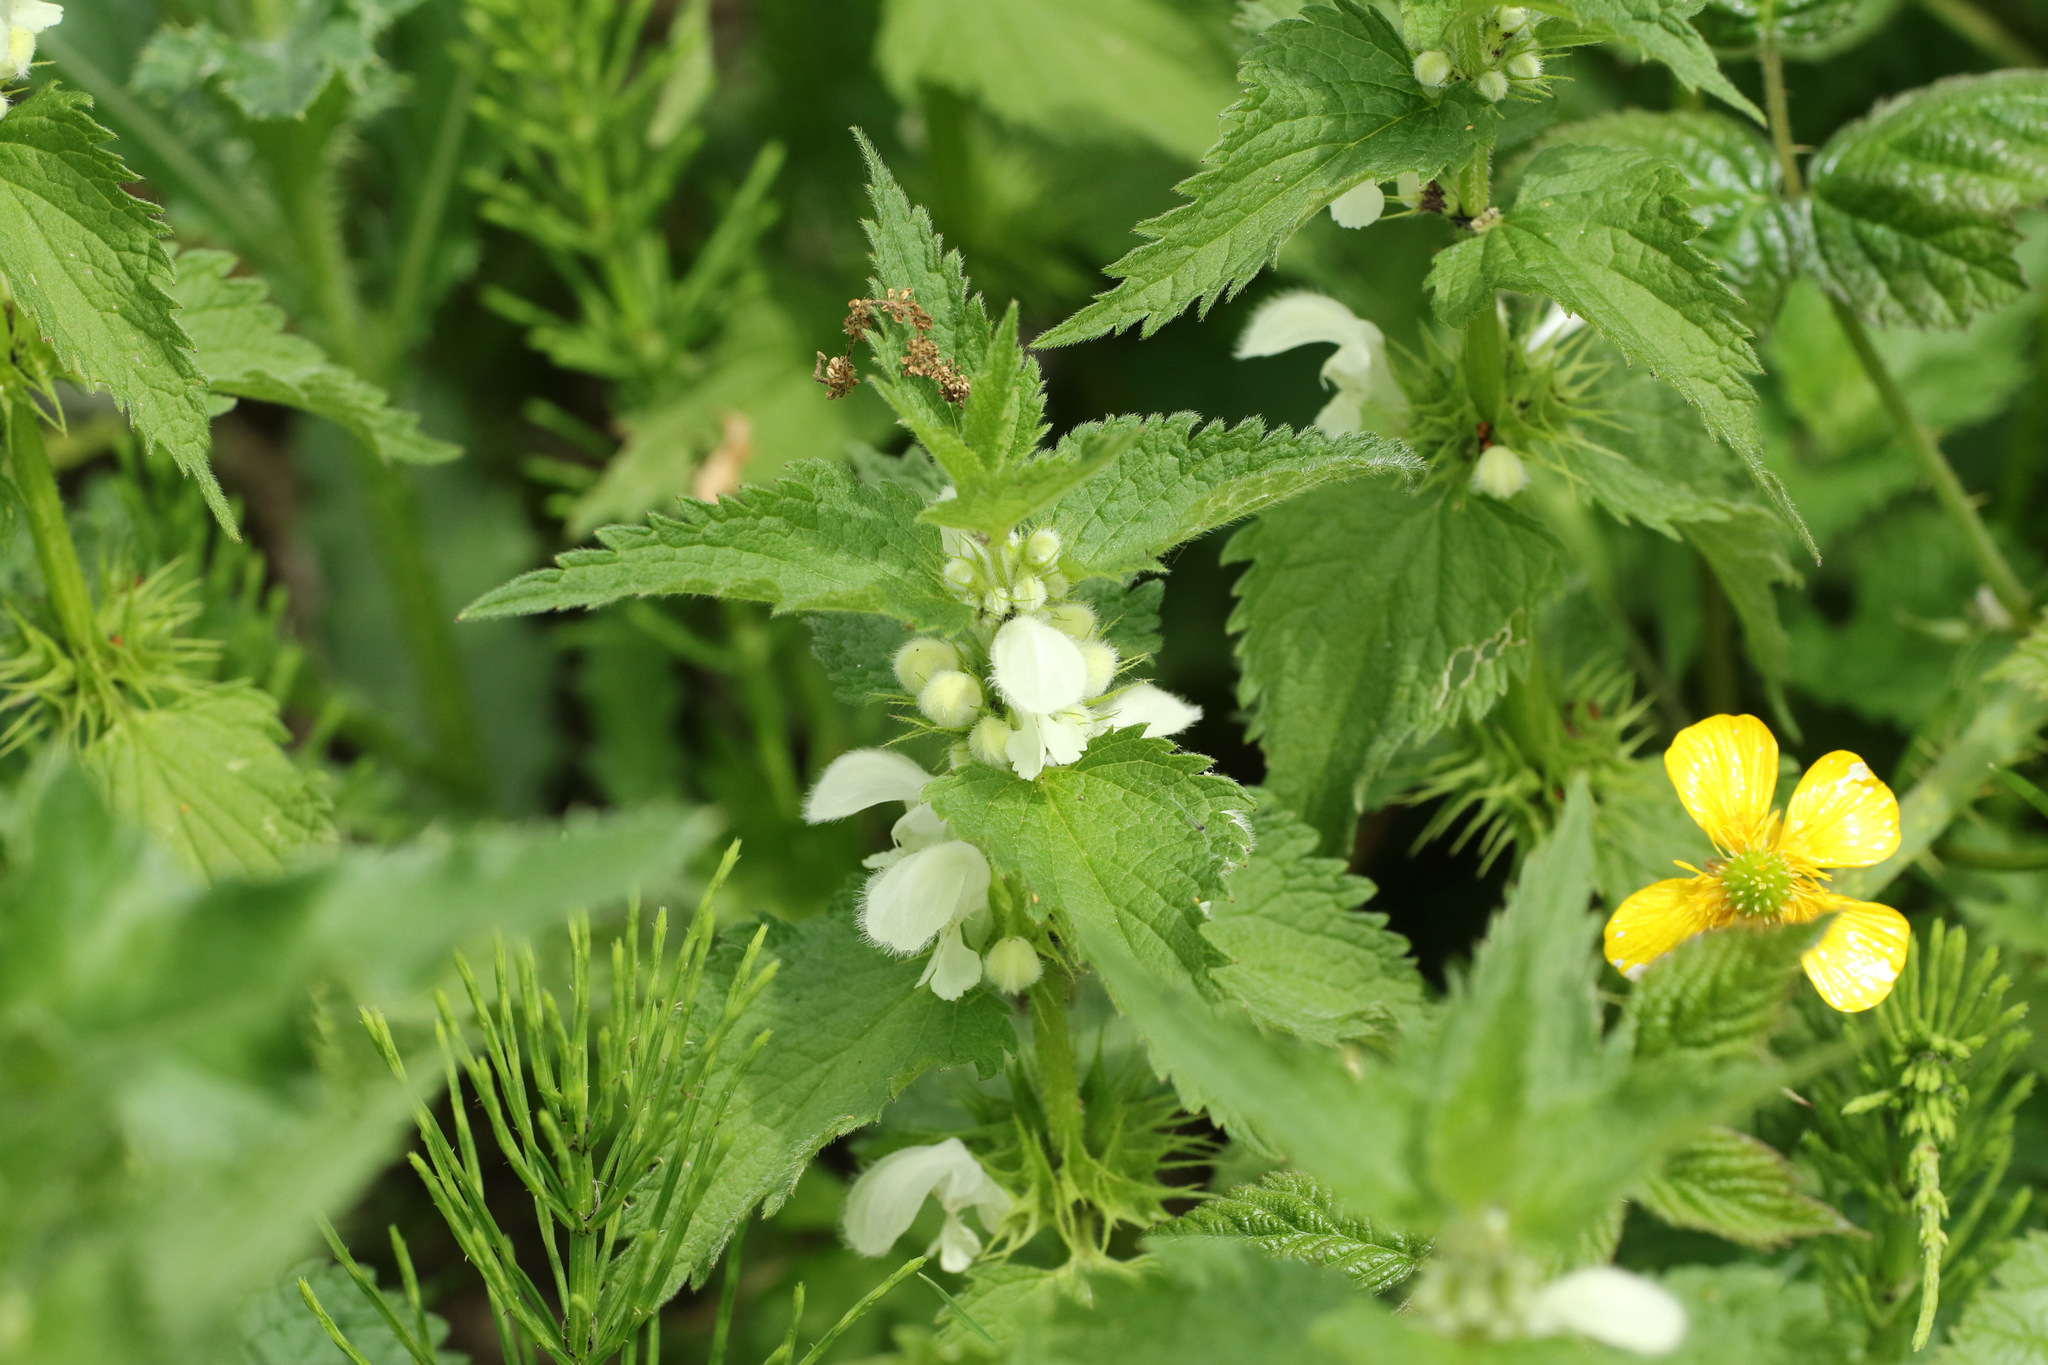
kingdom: Plantae
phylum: Tracheophyta
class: Magnoliopsida
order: Lamiales
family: Lamiaceae
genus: Lamium
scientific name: Lamium album
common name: White dead-nettle
